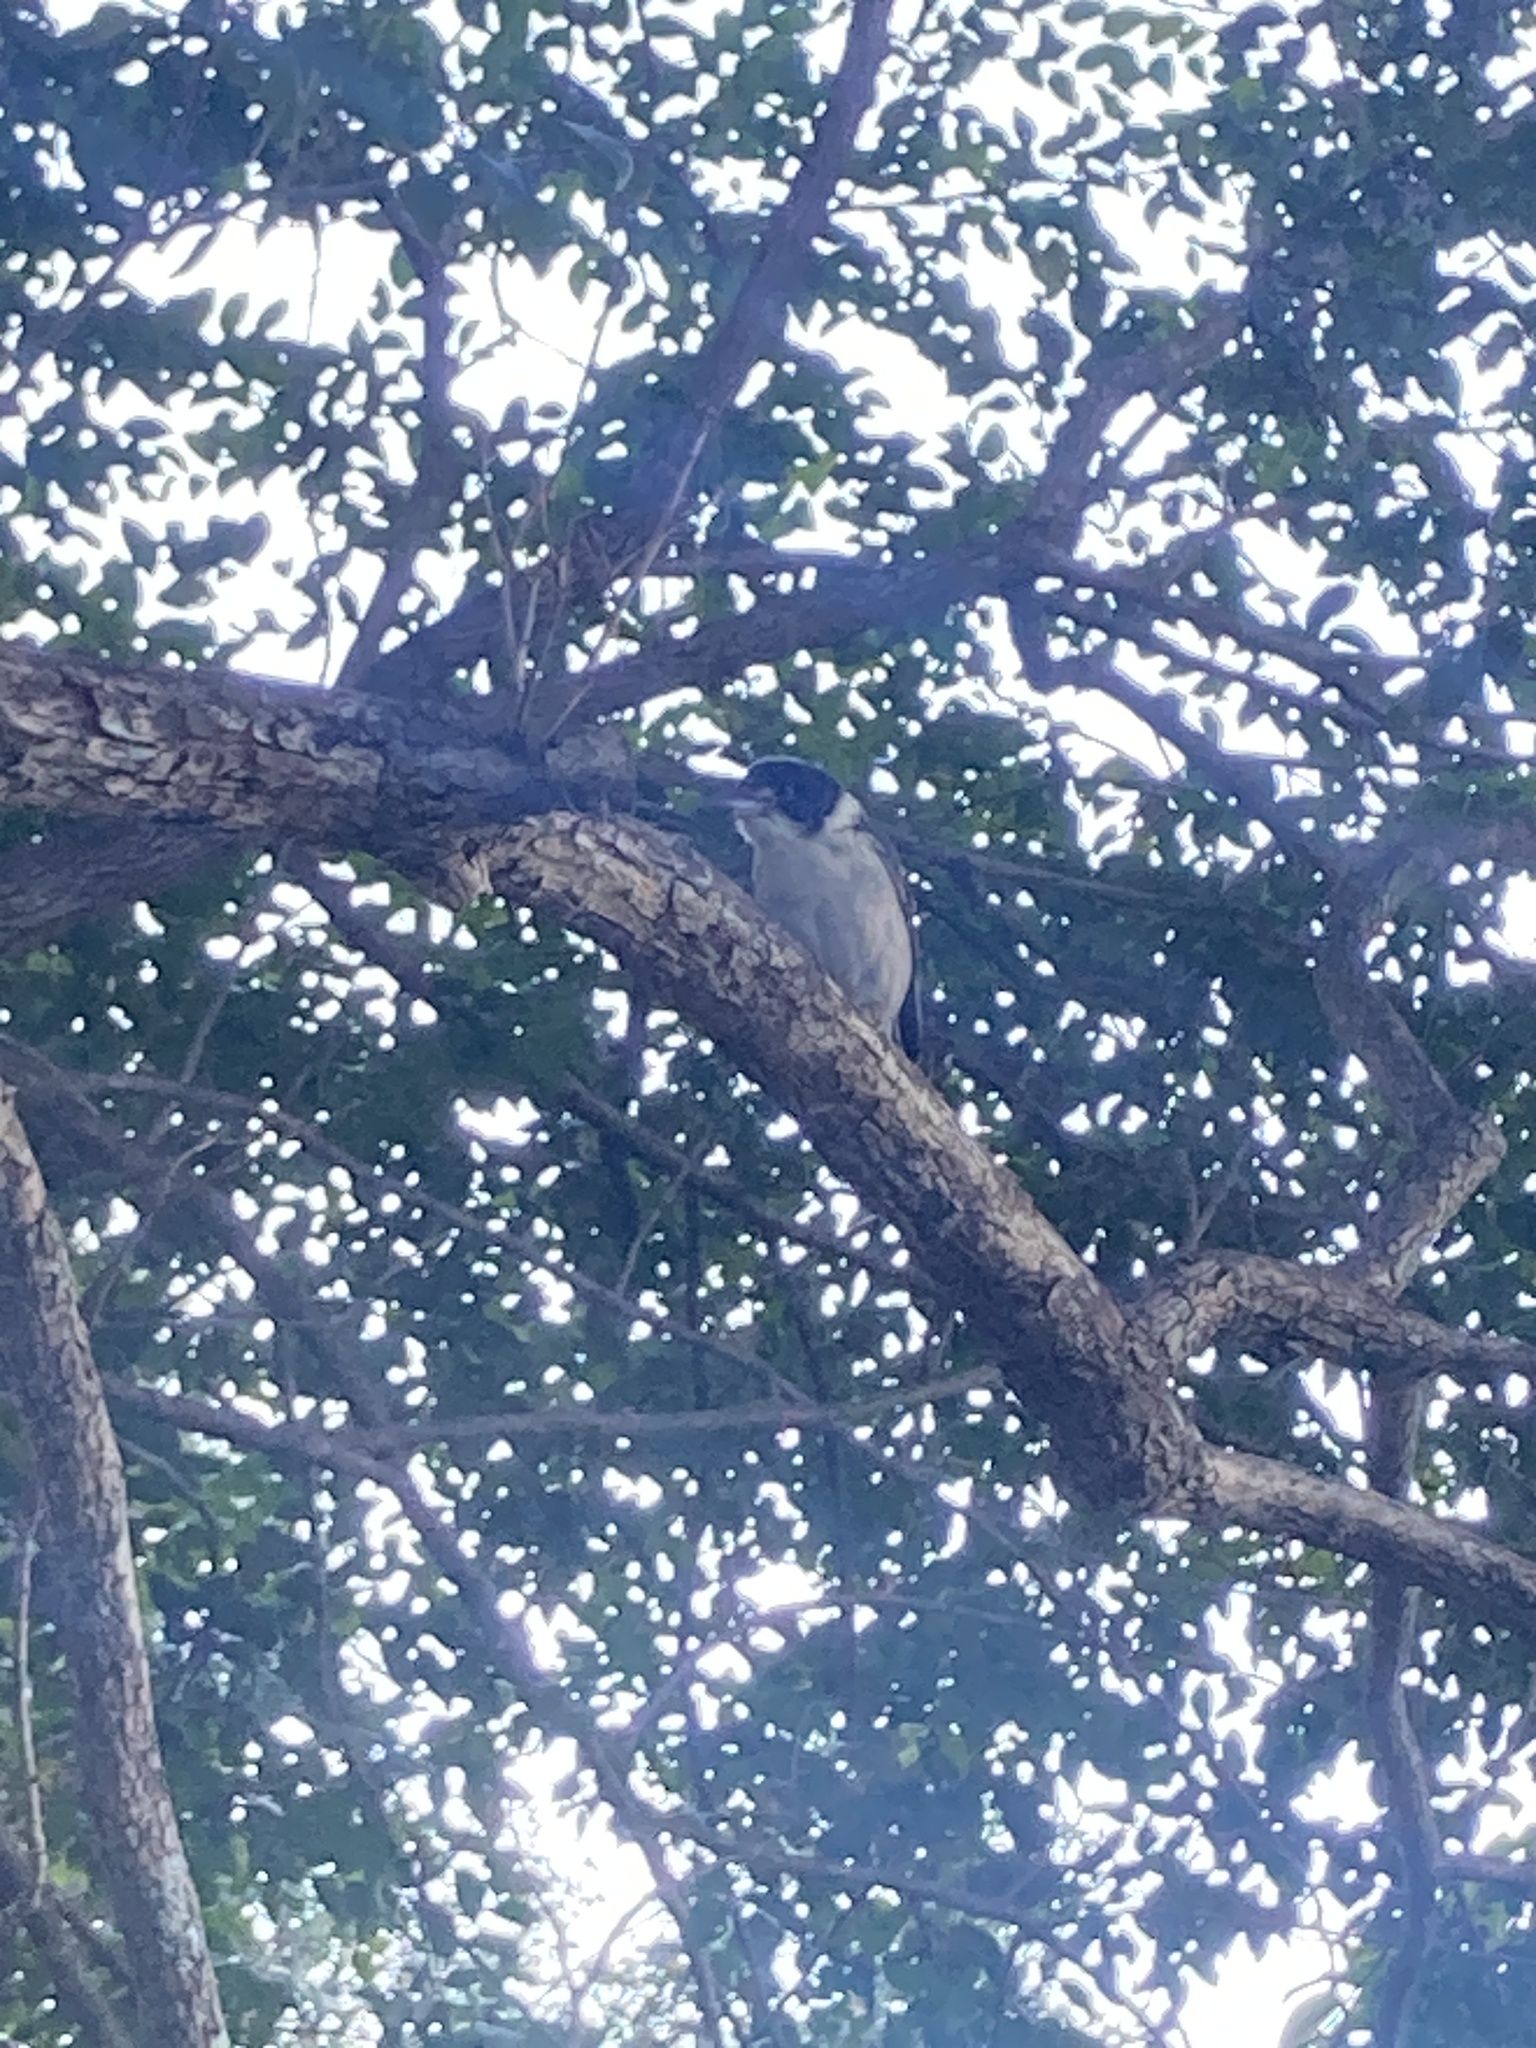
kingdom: Animalia
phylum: Chordata
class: Aves
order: Passeriformes
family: Cracticidae
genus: Cracticus
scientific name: Cracticus torquatus
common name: Grey butcherbird
